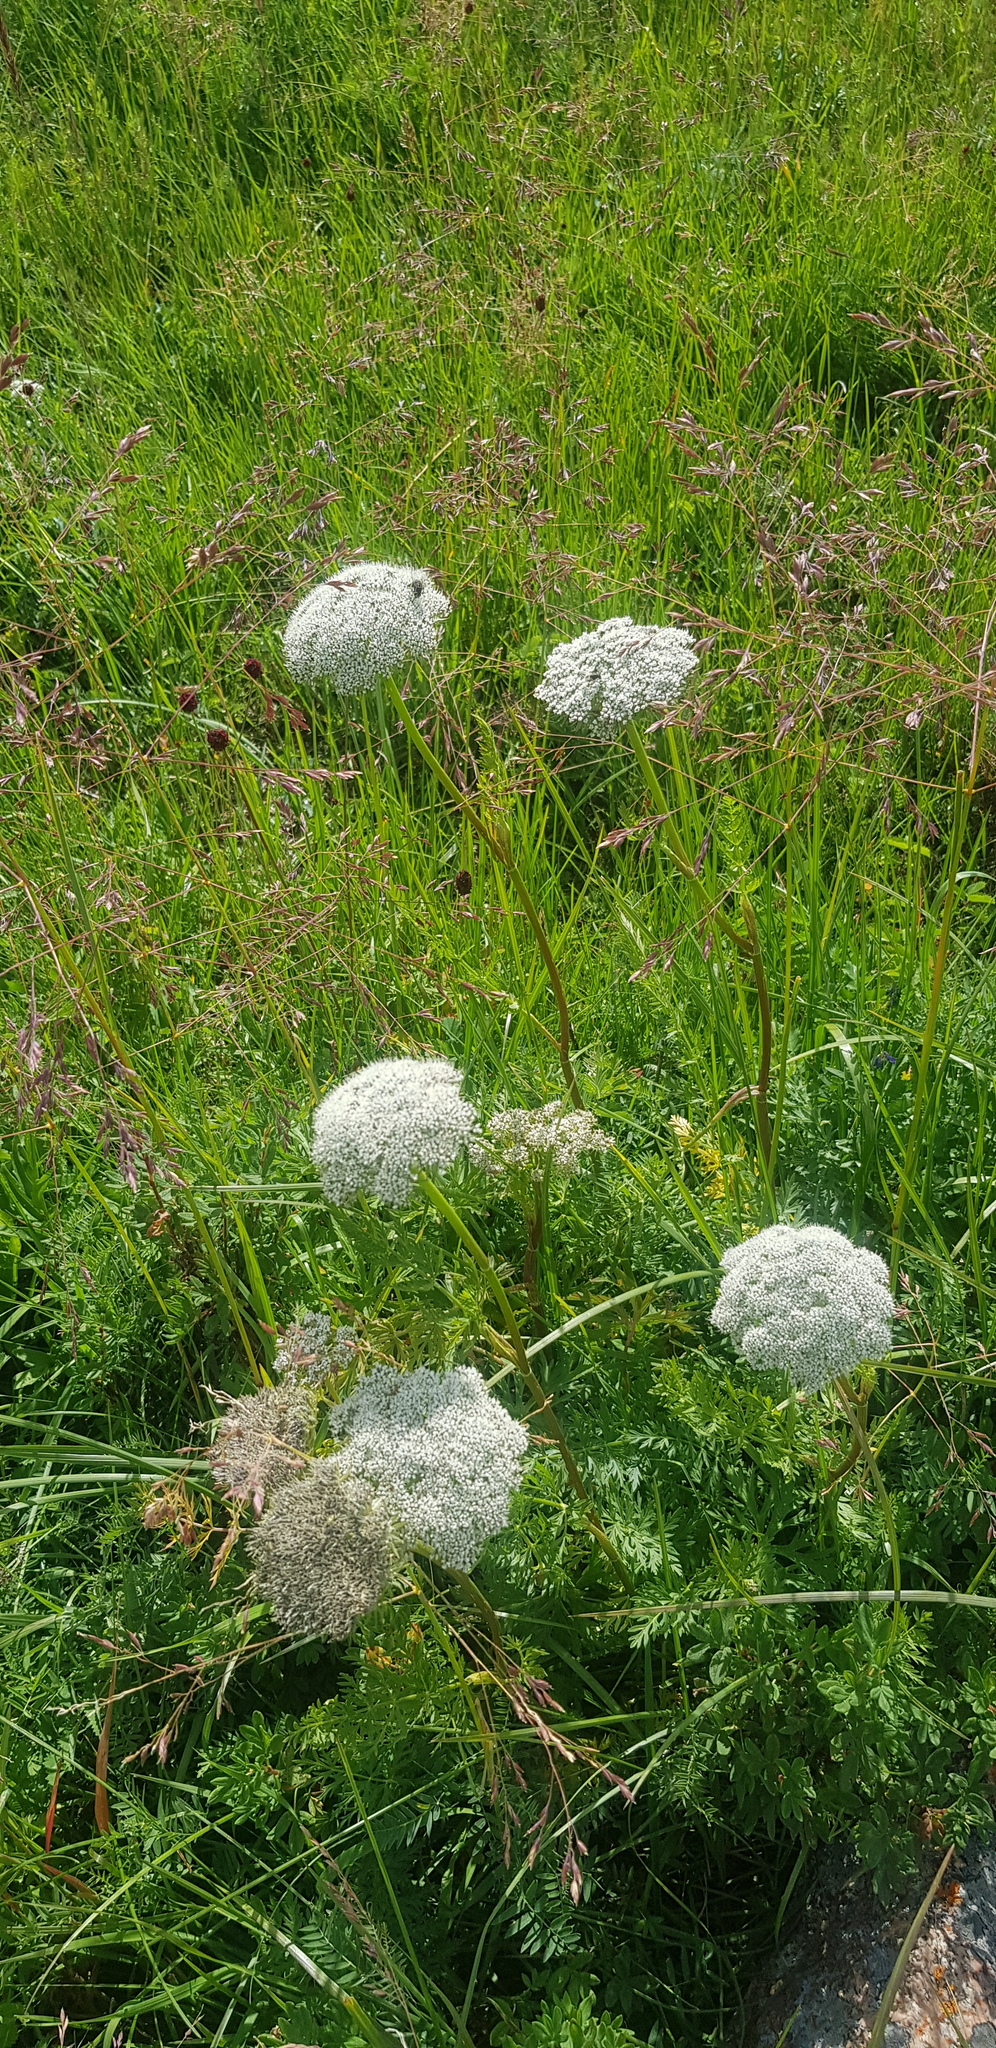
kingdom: Plantae
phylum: Tracheophyta
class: Magnoliopsida
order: Apiales
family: Apiaceae
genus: Seseli
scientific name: Seseli condensatum
